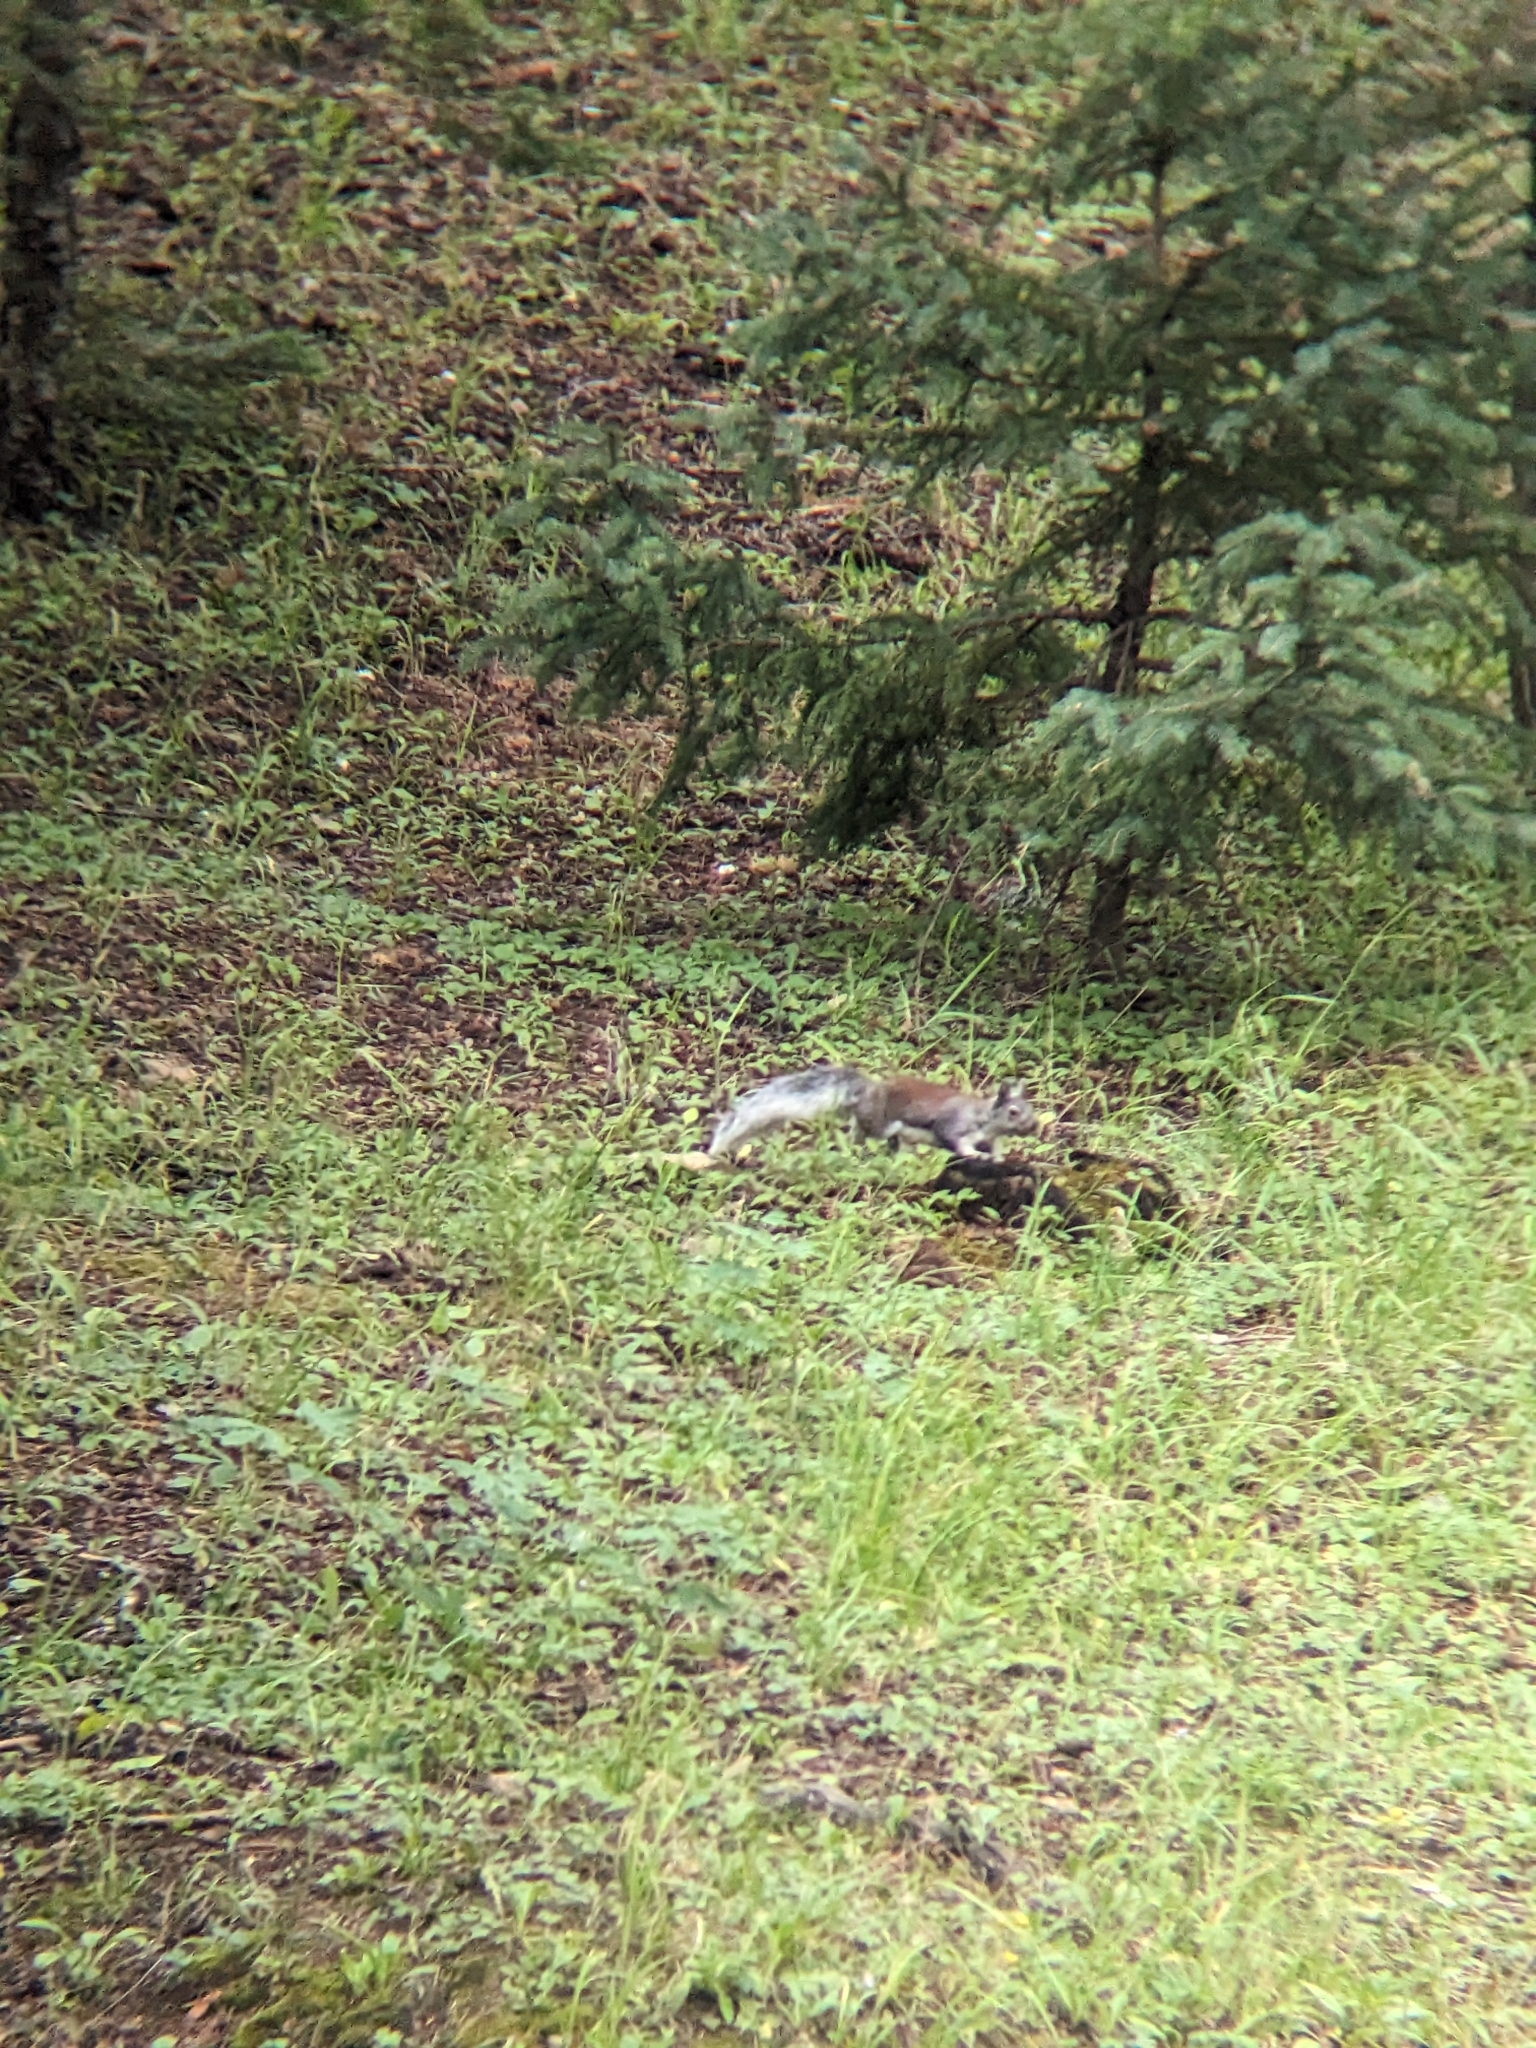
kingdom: Animalia
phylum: Chordata
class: Mammalia
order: Rodentia
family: Sciuridae
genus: Sciurus
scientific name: Sciurus aberti
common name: Abert's squirrel
